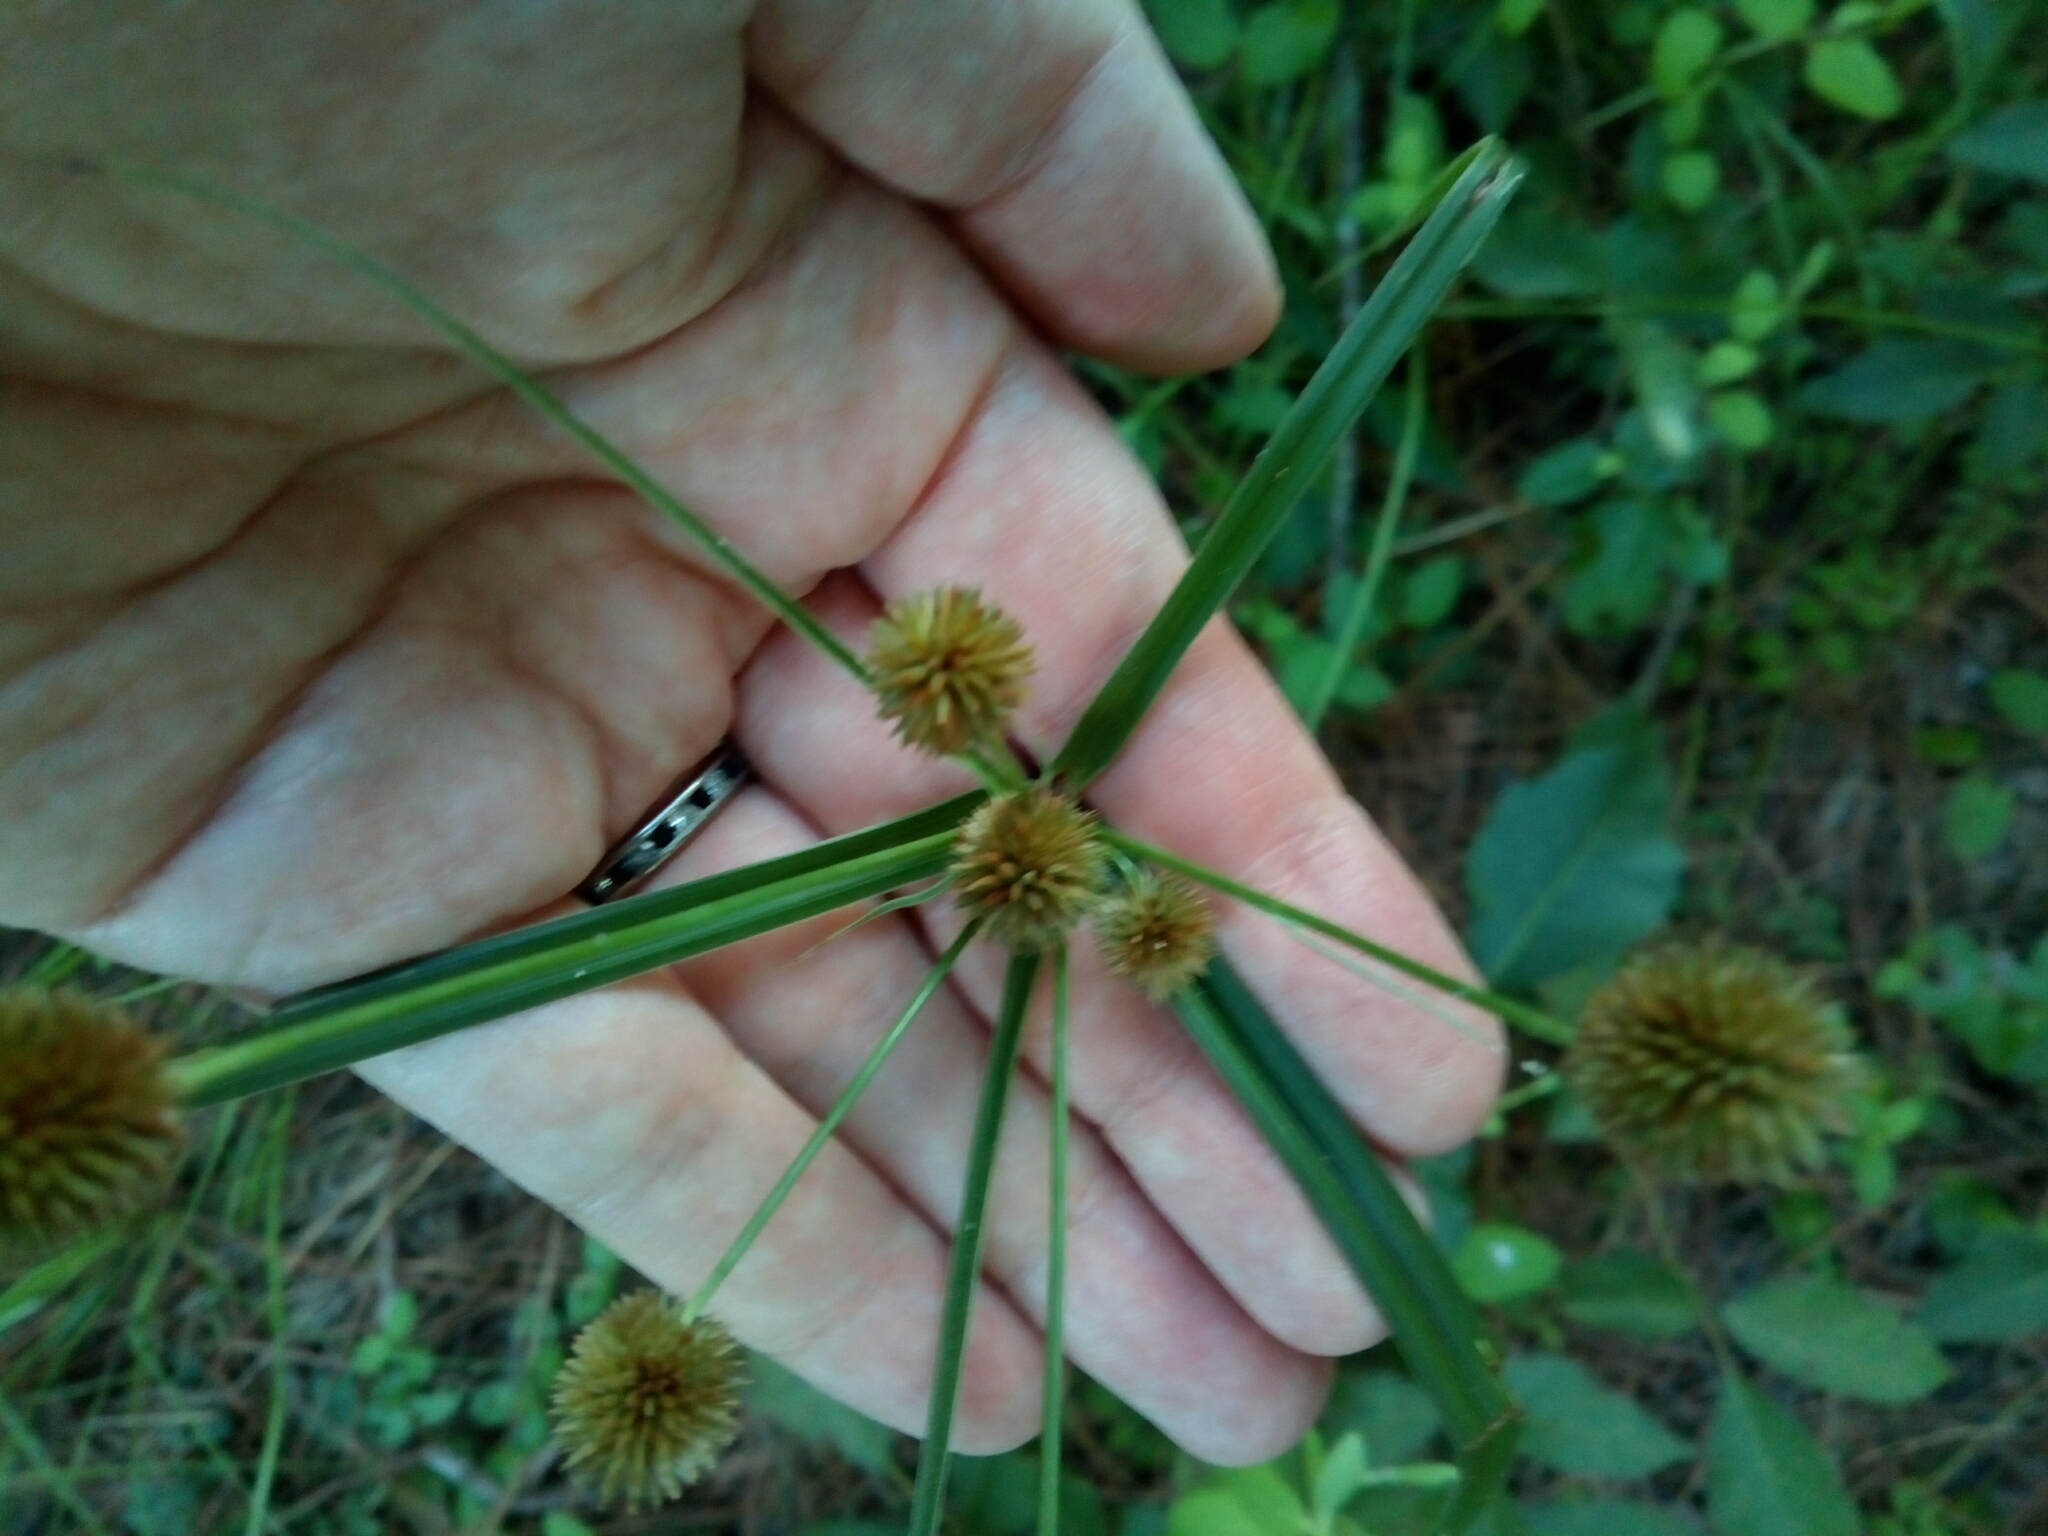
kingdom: Plantae
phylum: Tracheophyta
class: Liliopsida
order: Poales
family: Cyperaceae
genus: Cyperus
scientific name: Cyperus echinatus
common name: Teasel sedge
